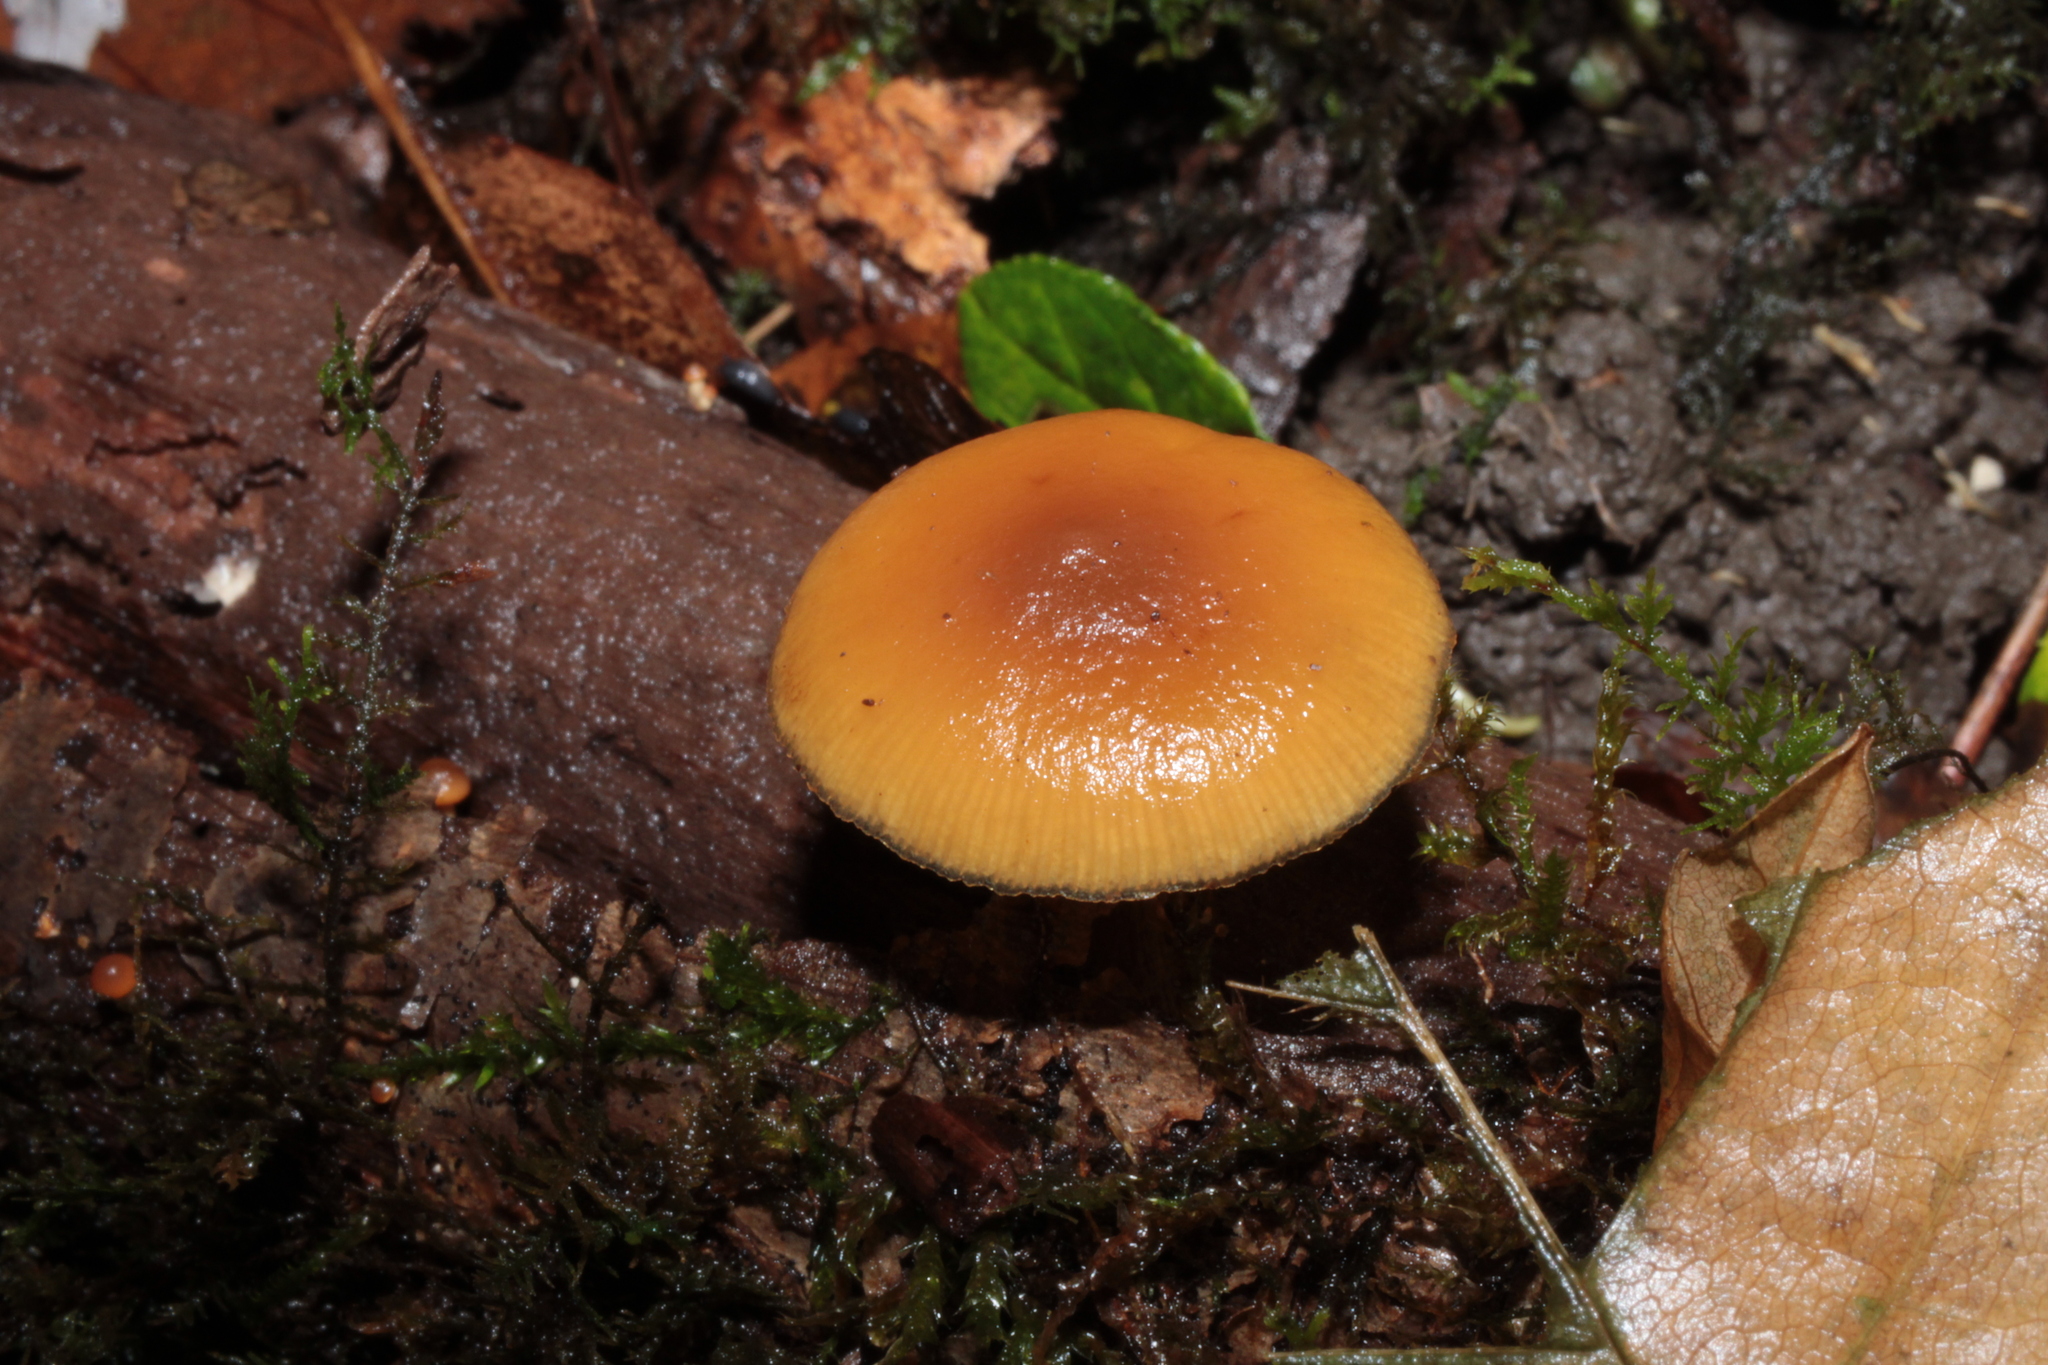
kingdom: Fungi
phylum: Basidiomycota
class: Agaricomycetes
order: Agaricales
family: Hymenogastraceae
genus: Galerina
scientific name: Galerina marginata
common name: Funeral bell
